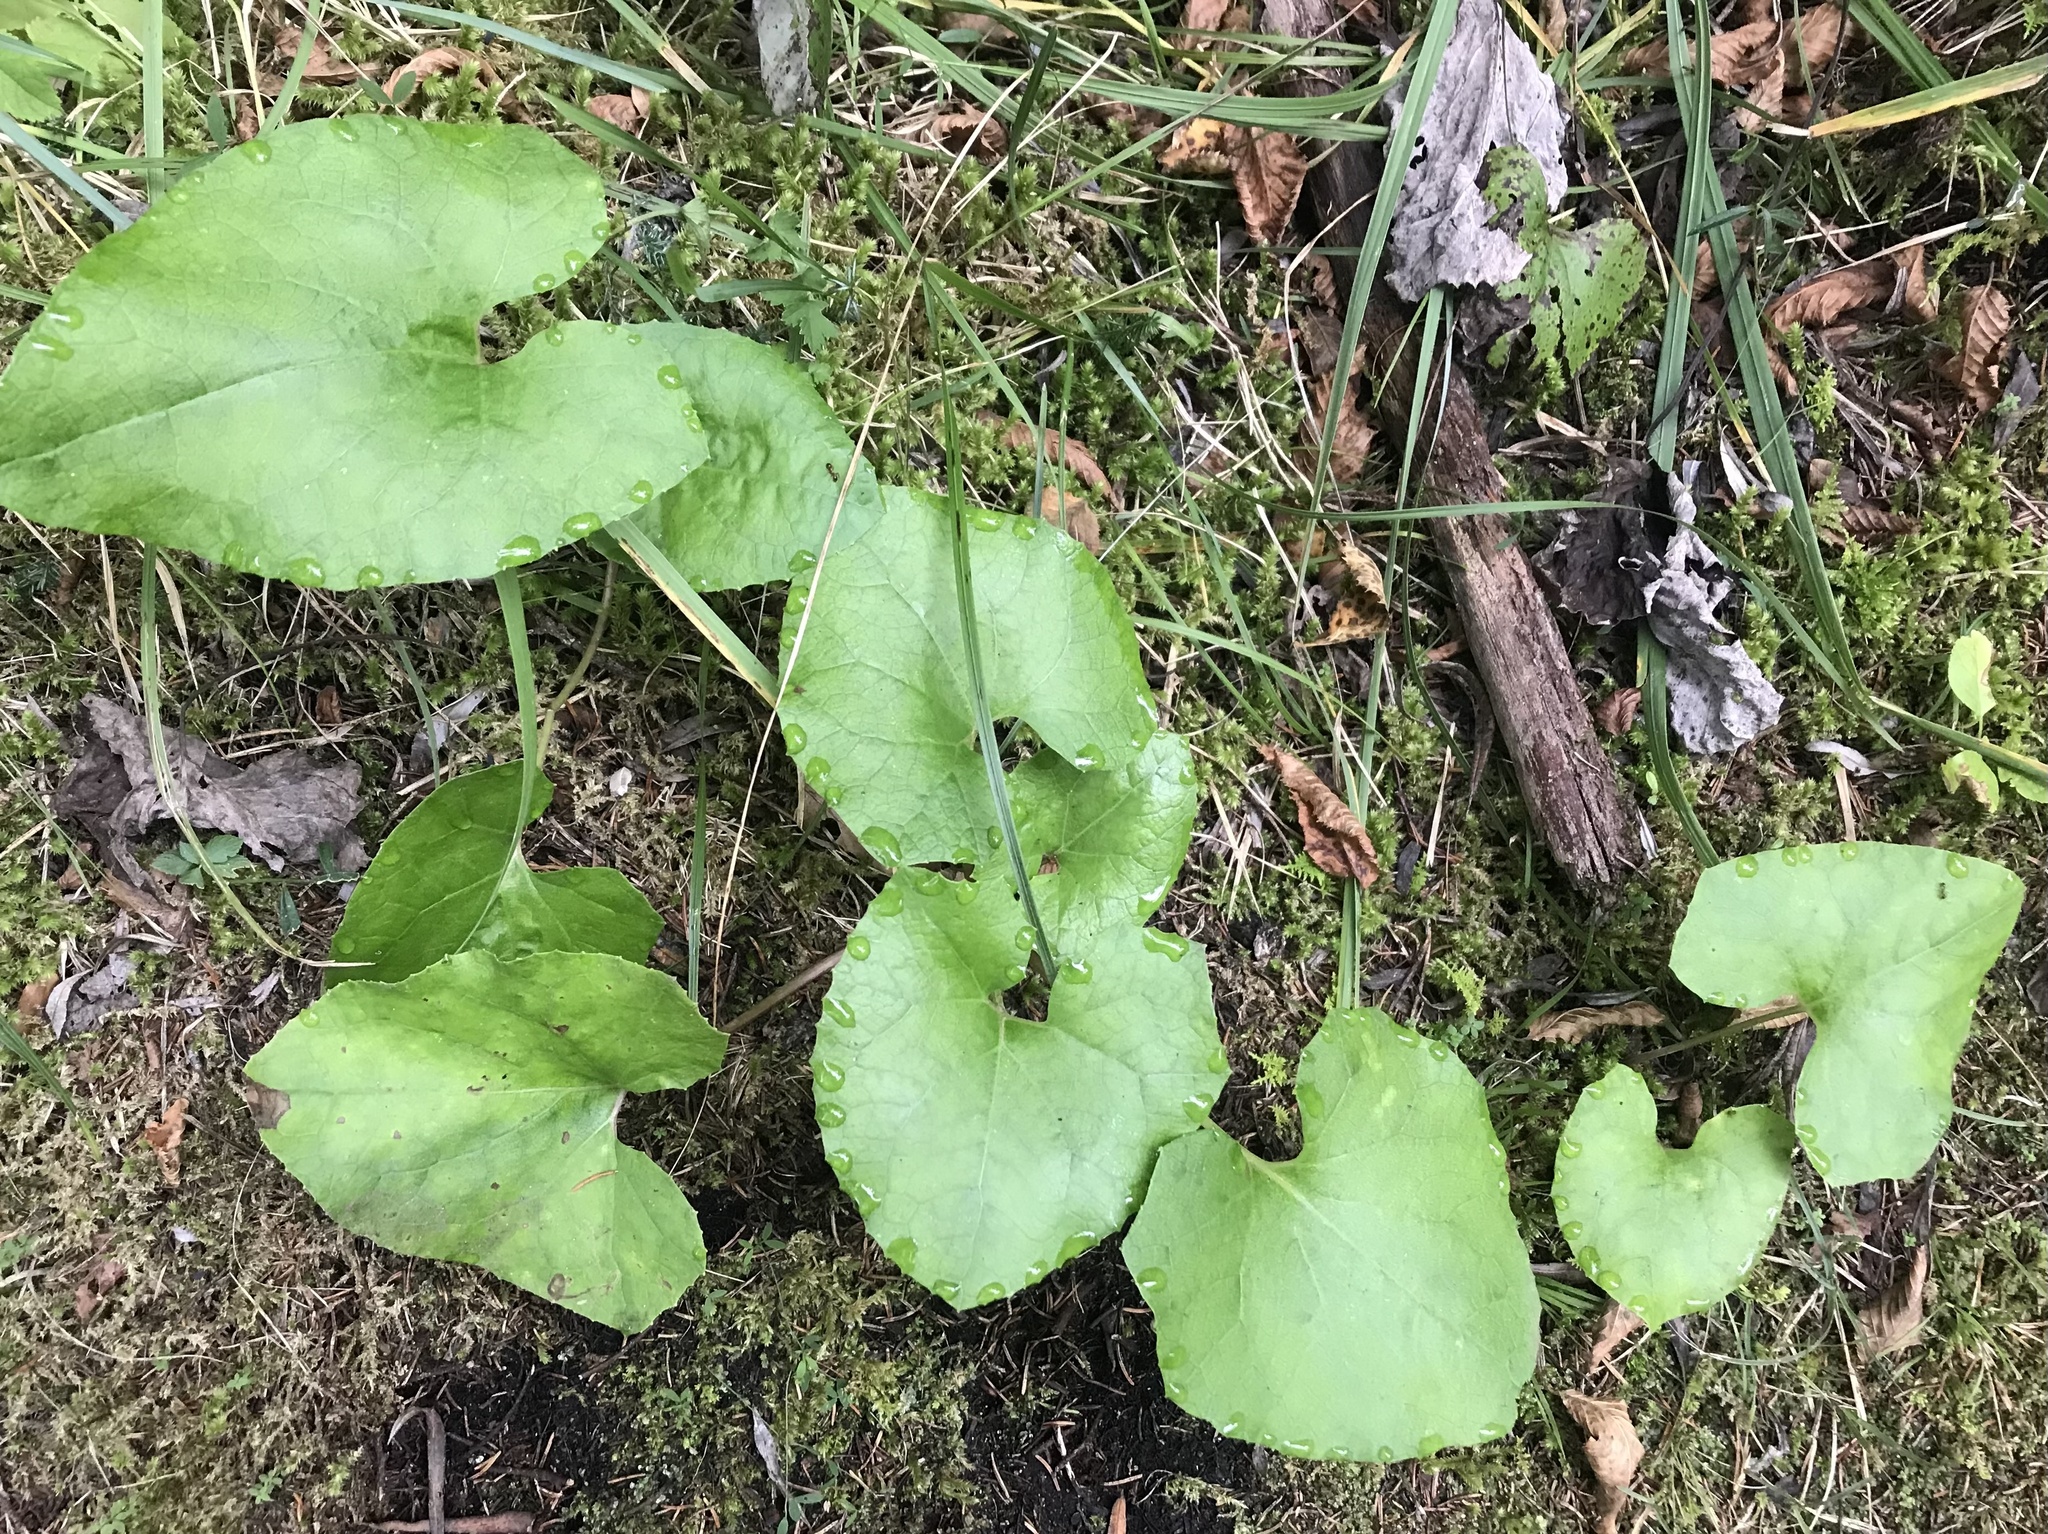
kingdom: Plantae
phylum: Tracheophyta
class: Magnoliopsida
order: Asterales
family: Asteraceae
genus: Petasites
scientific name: Petasites paradoxus
